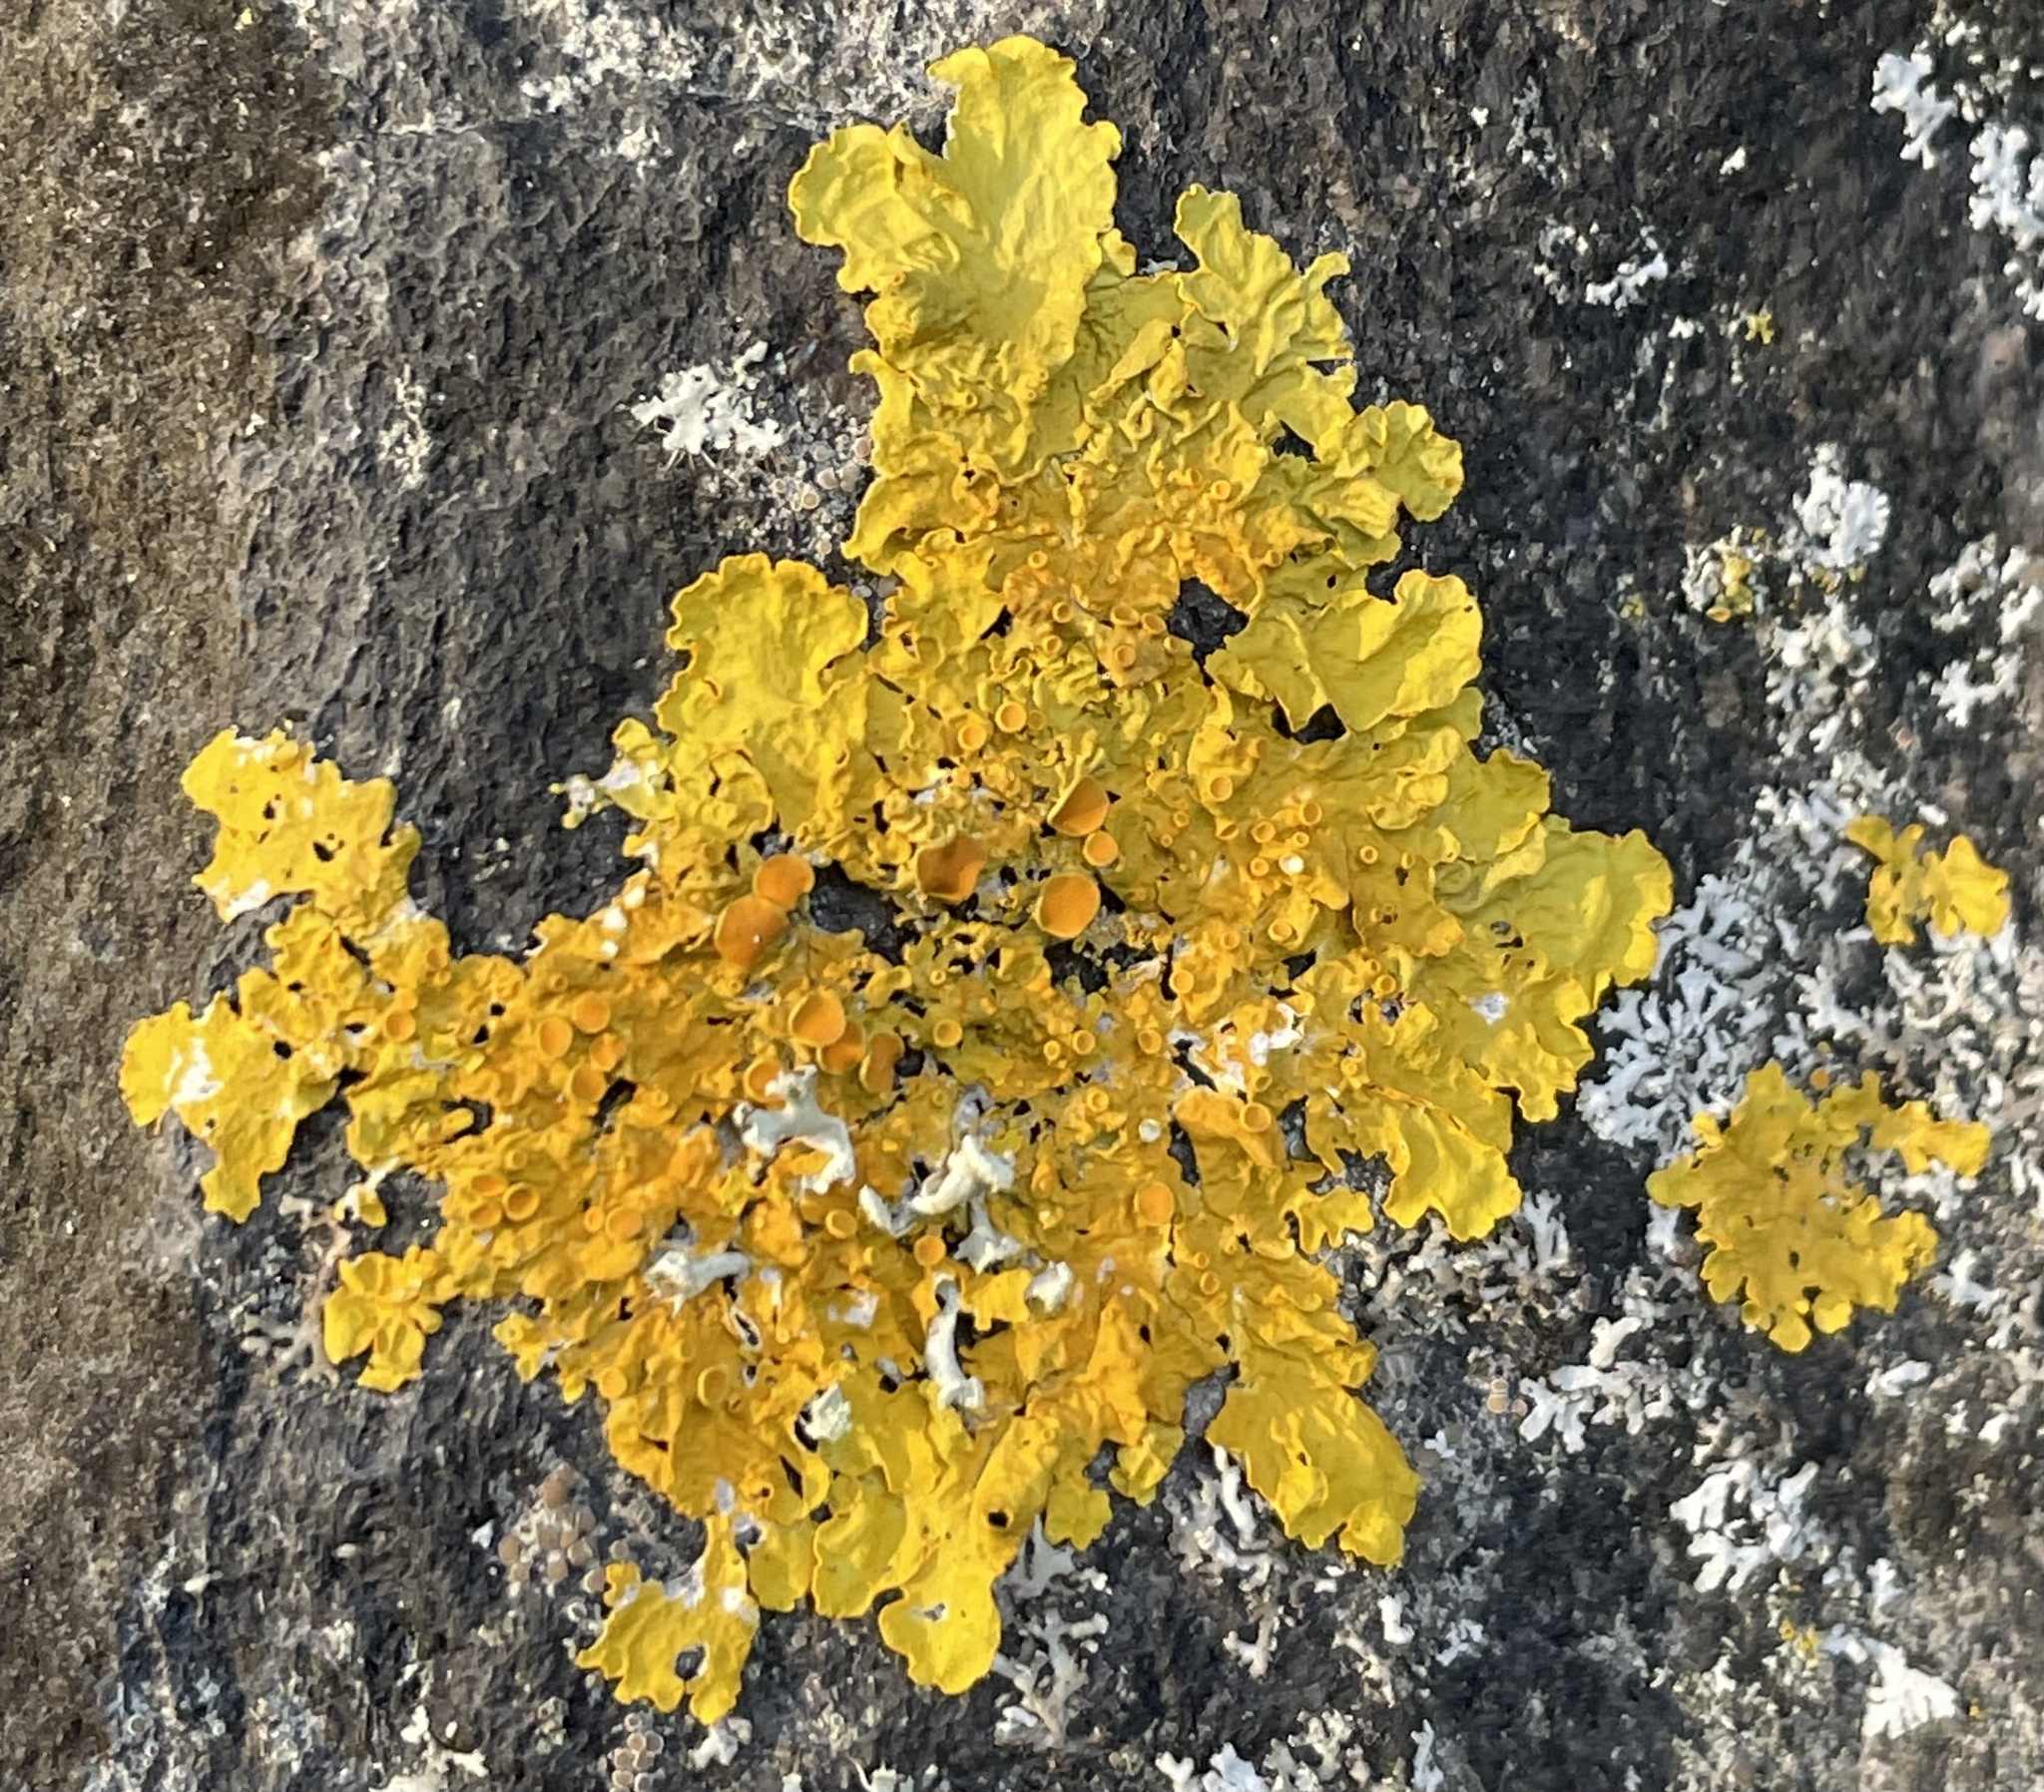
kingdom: Fungi
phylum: Ascomycota
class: Lecanoromycetes
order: Teloschistales
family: Teloschistaceae
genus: Xanthoria
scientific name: Xanthoria parietina
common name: Common orange lichen
